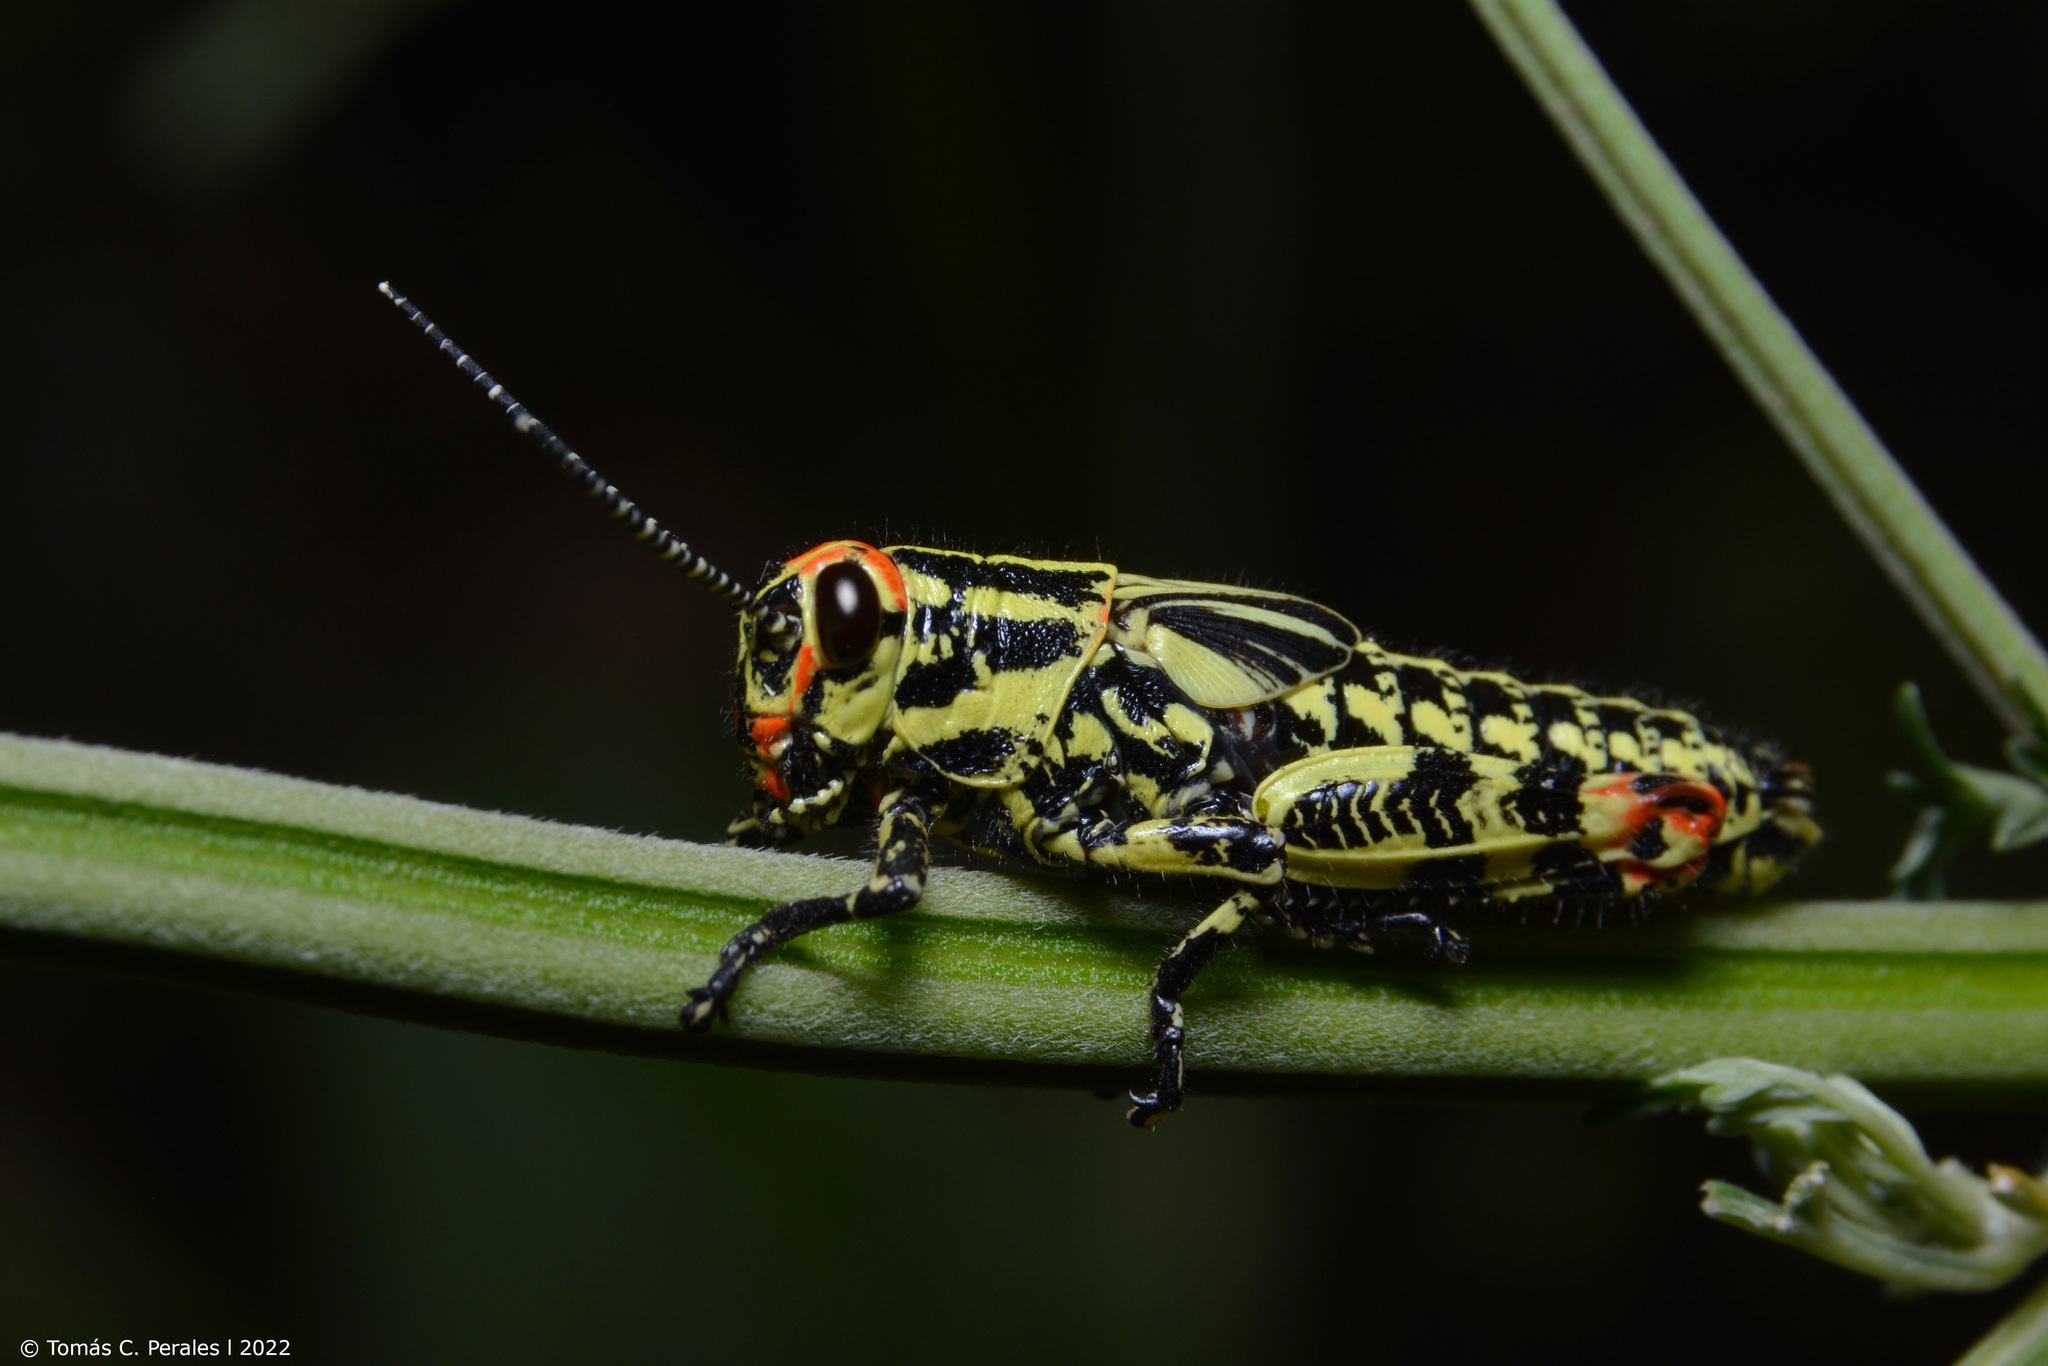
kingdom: Animalia
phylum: Arthropoda
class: Insecta
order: Orthoptera
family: Romaleidae
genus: Diponthus
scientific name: Diponthus puelchus
